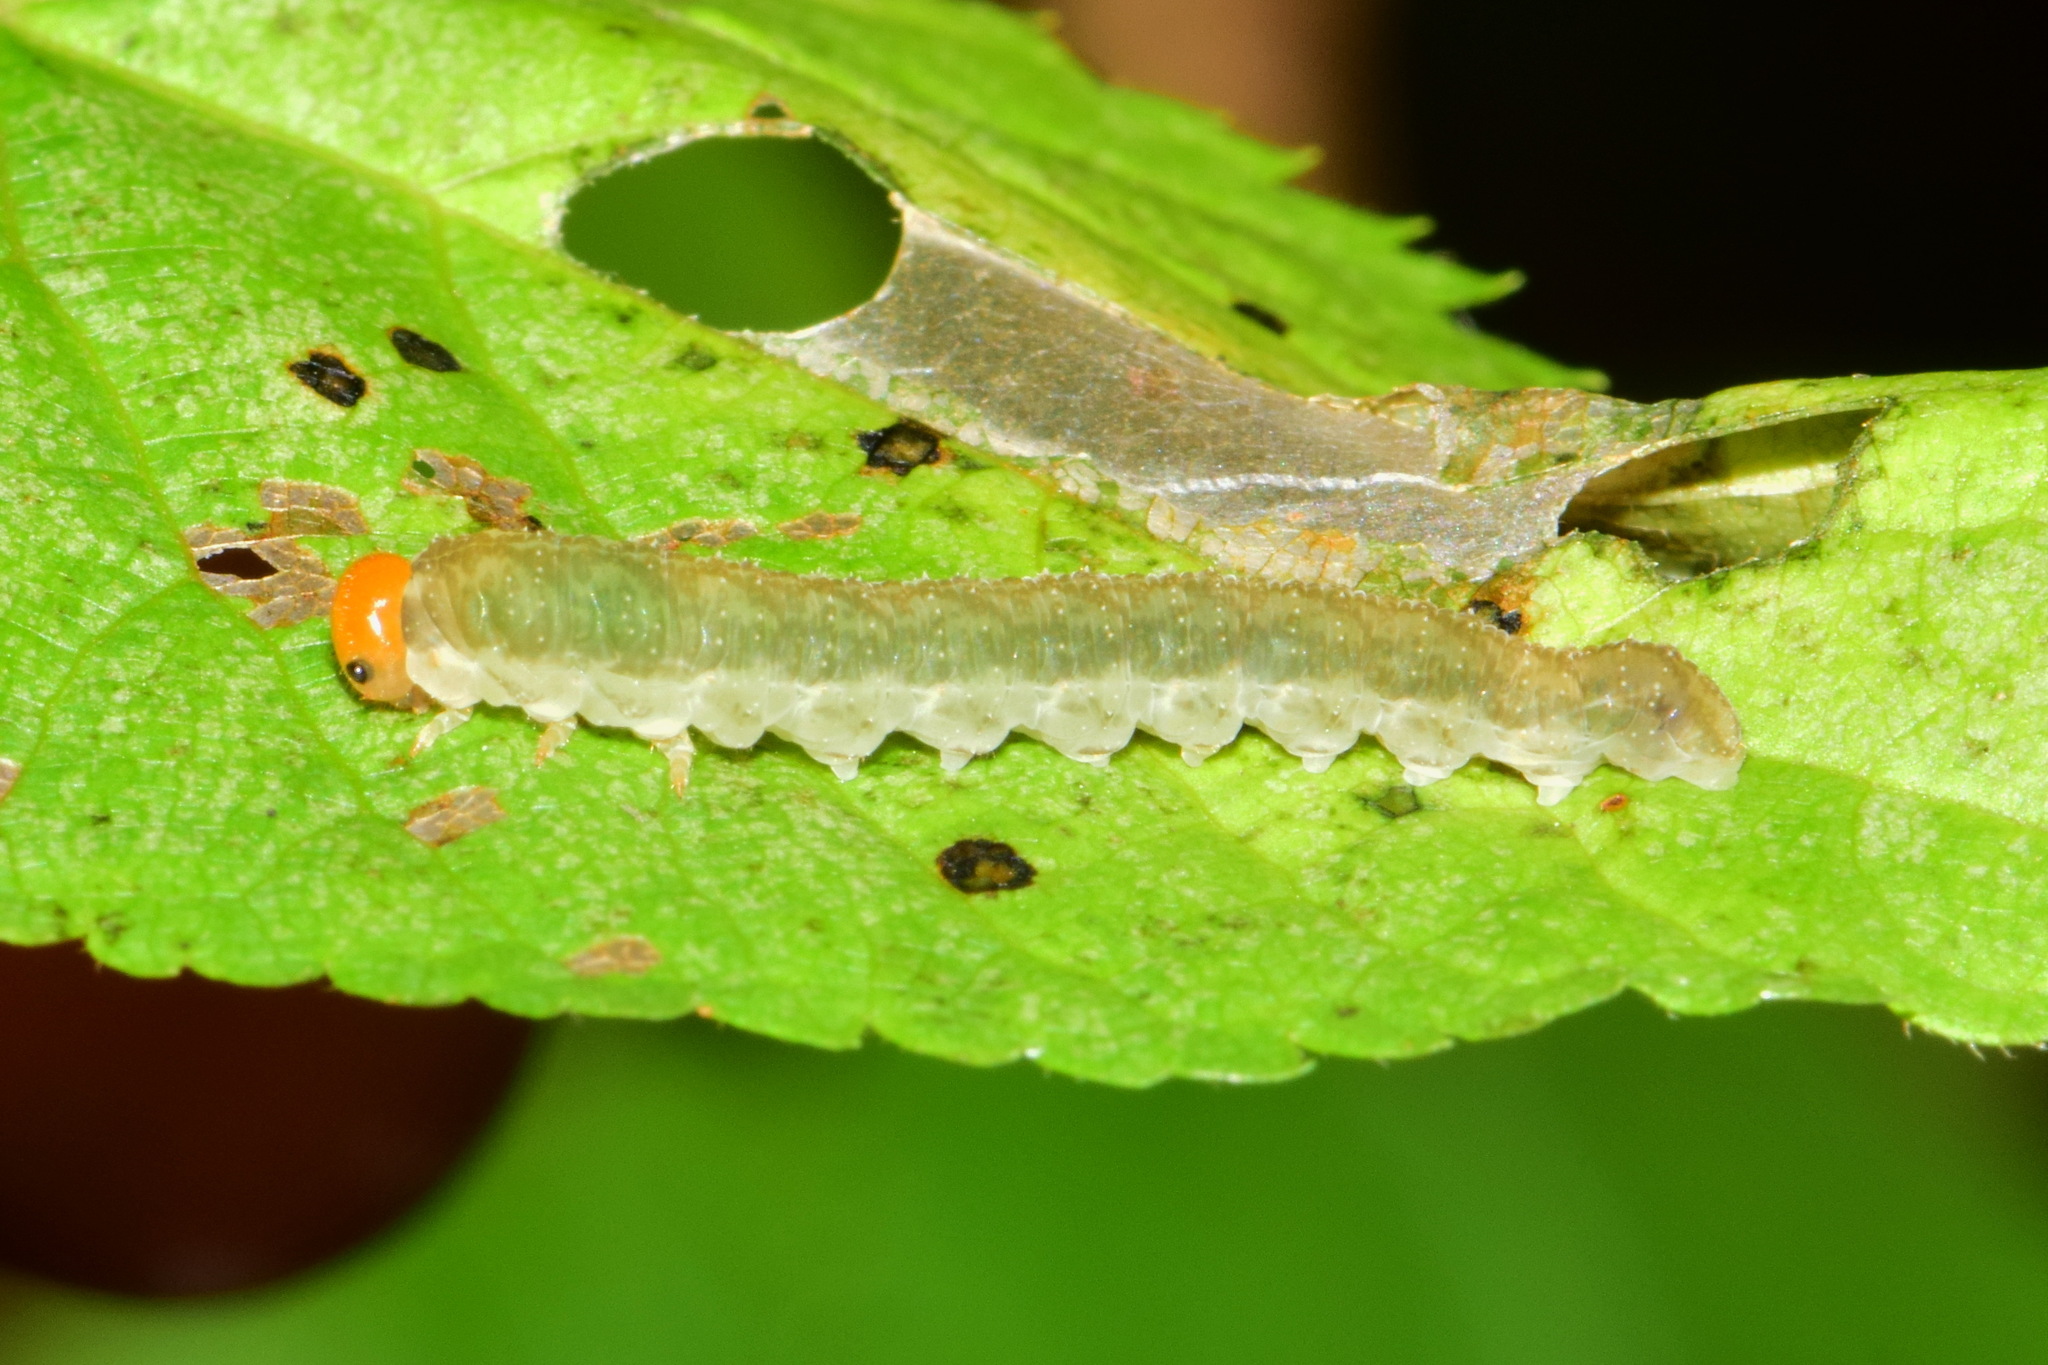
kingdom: Animalia
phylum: Arthropoda
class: Insecta
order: Hymenoptera
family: Tenthredinidae
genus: Tenthredo
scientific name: Tenthredo livida
